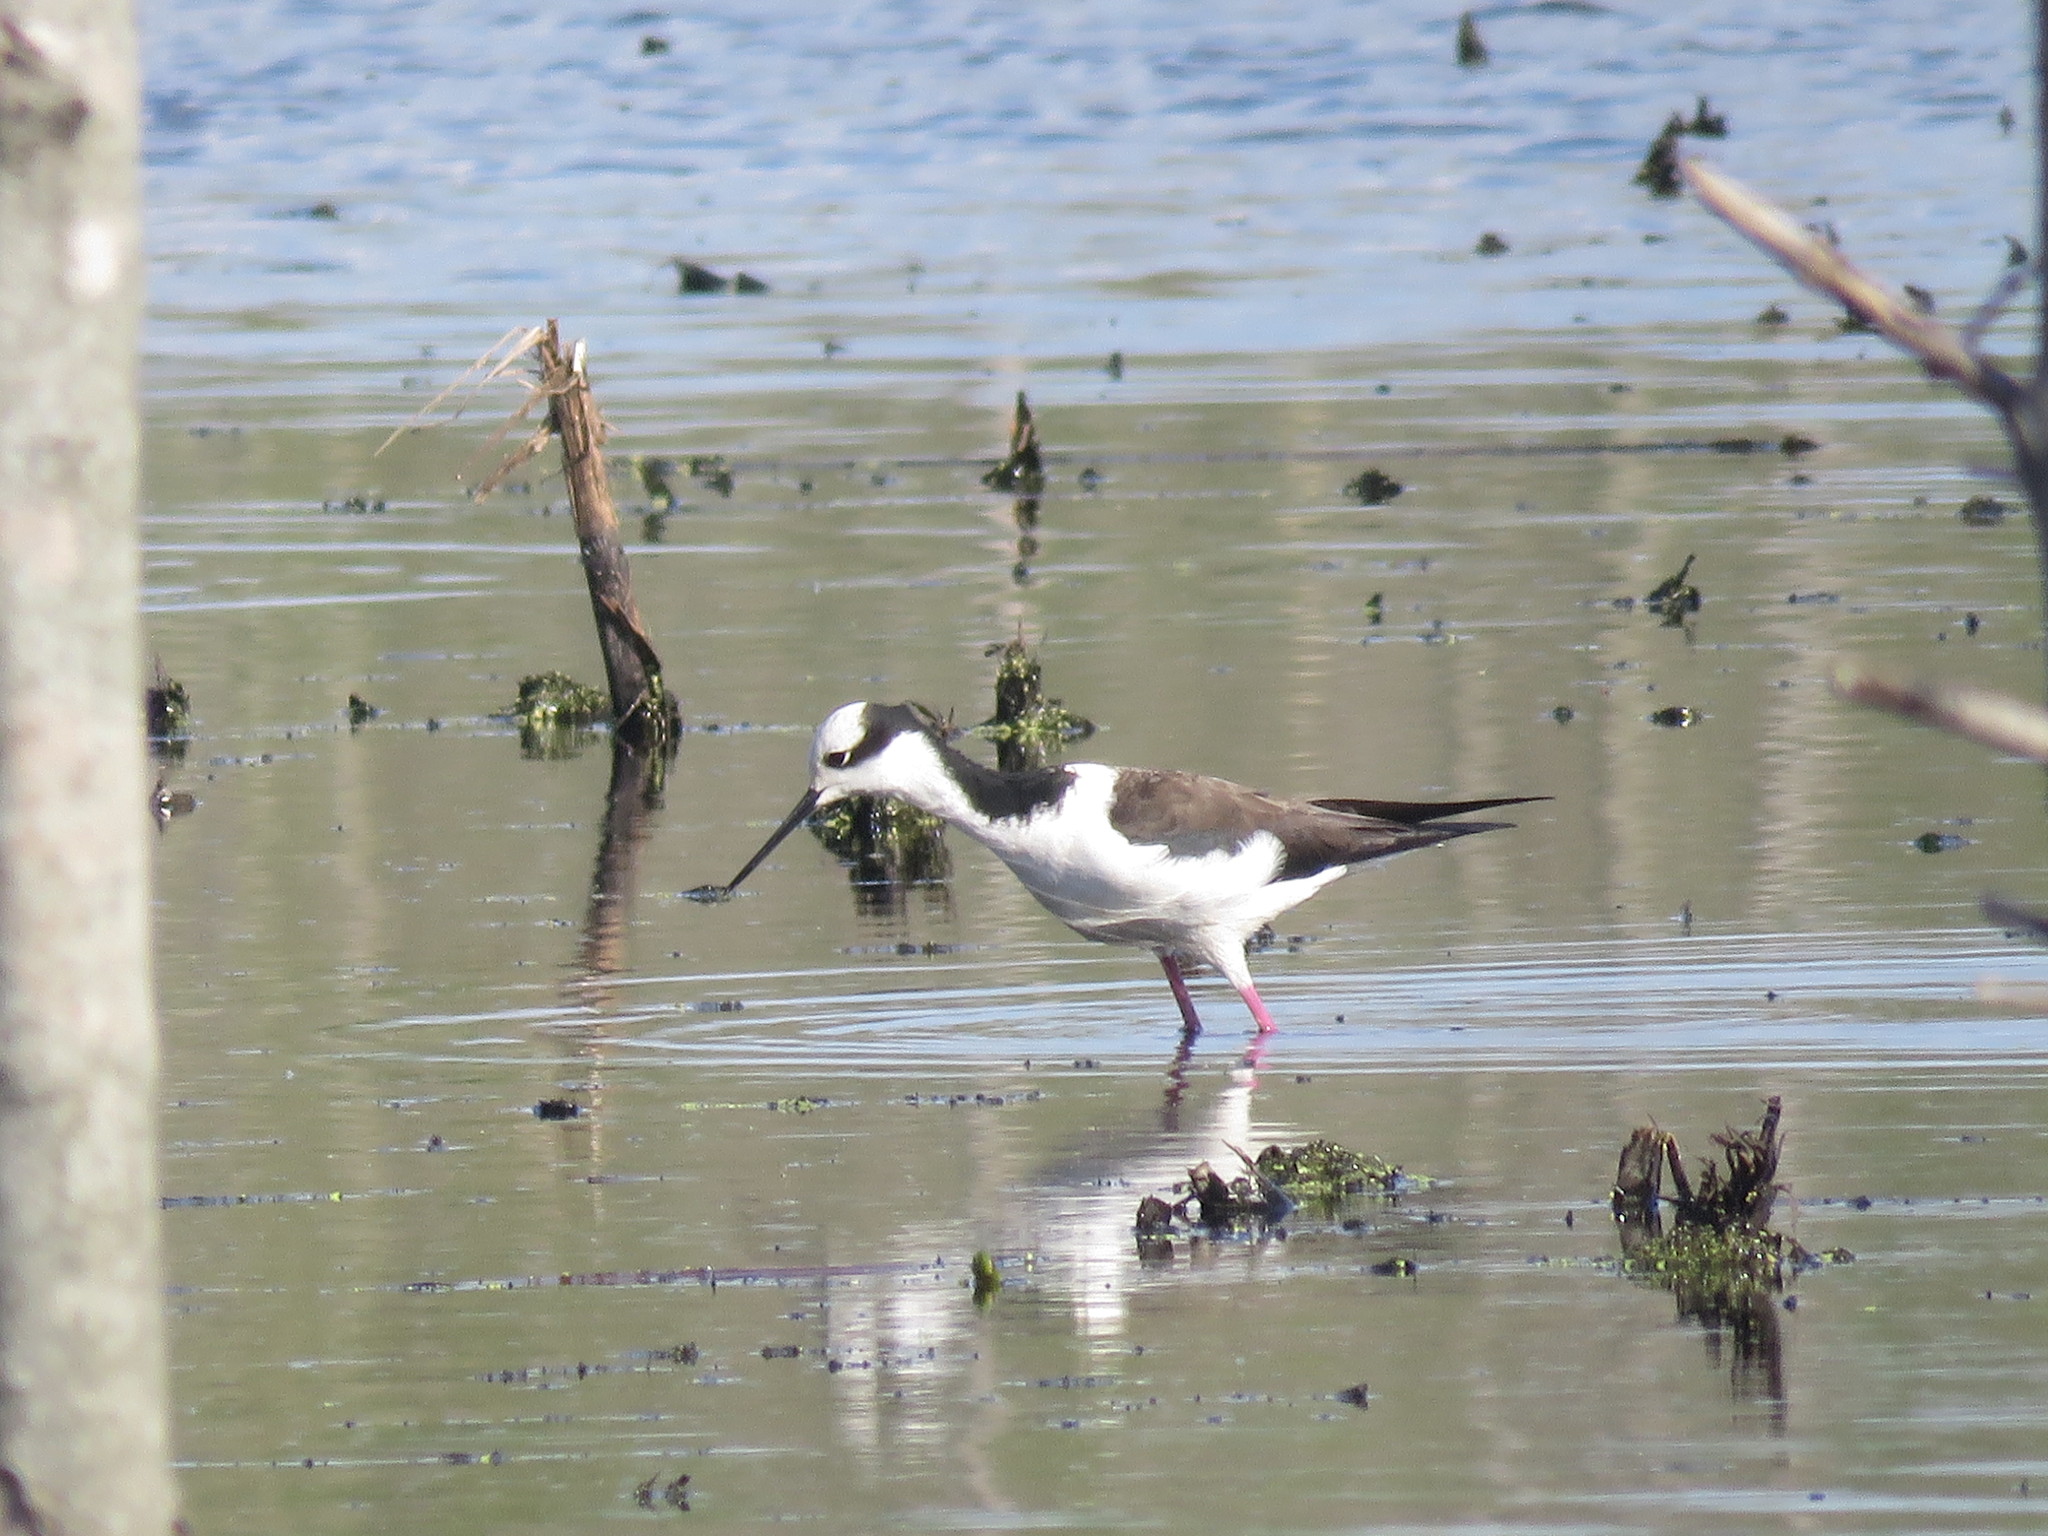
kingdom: Animalia
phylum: Chordata
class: Aves
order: Charadriiformes
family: Recurvirostridae
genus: Himantopus
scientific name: Himantopus mexicanus
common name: Black-necked stilt
